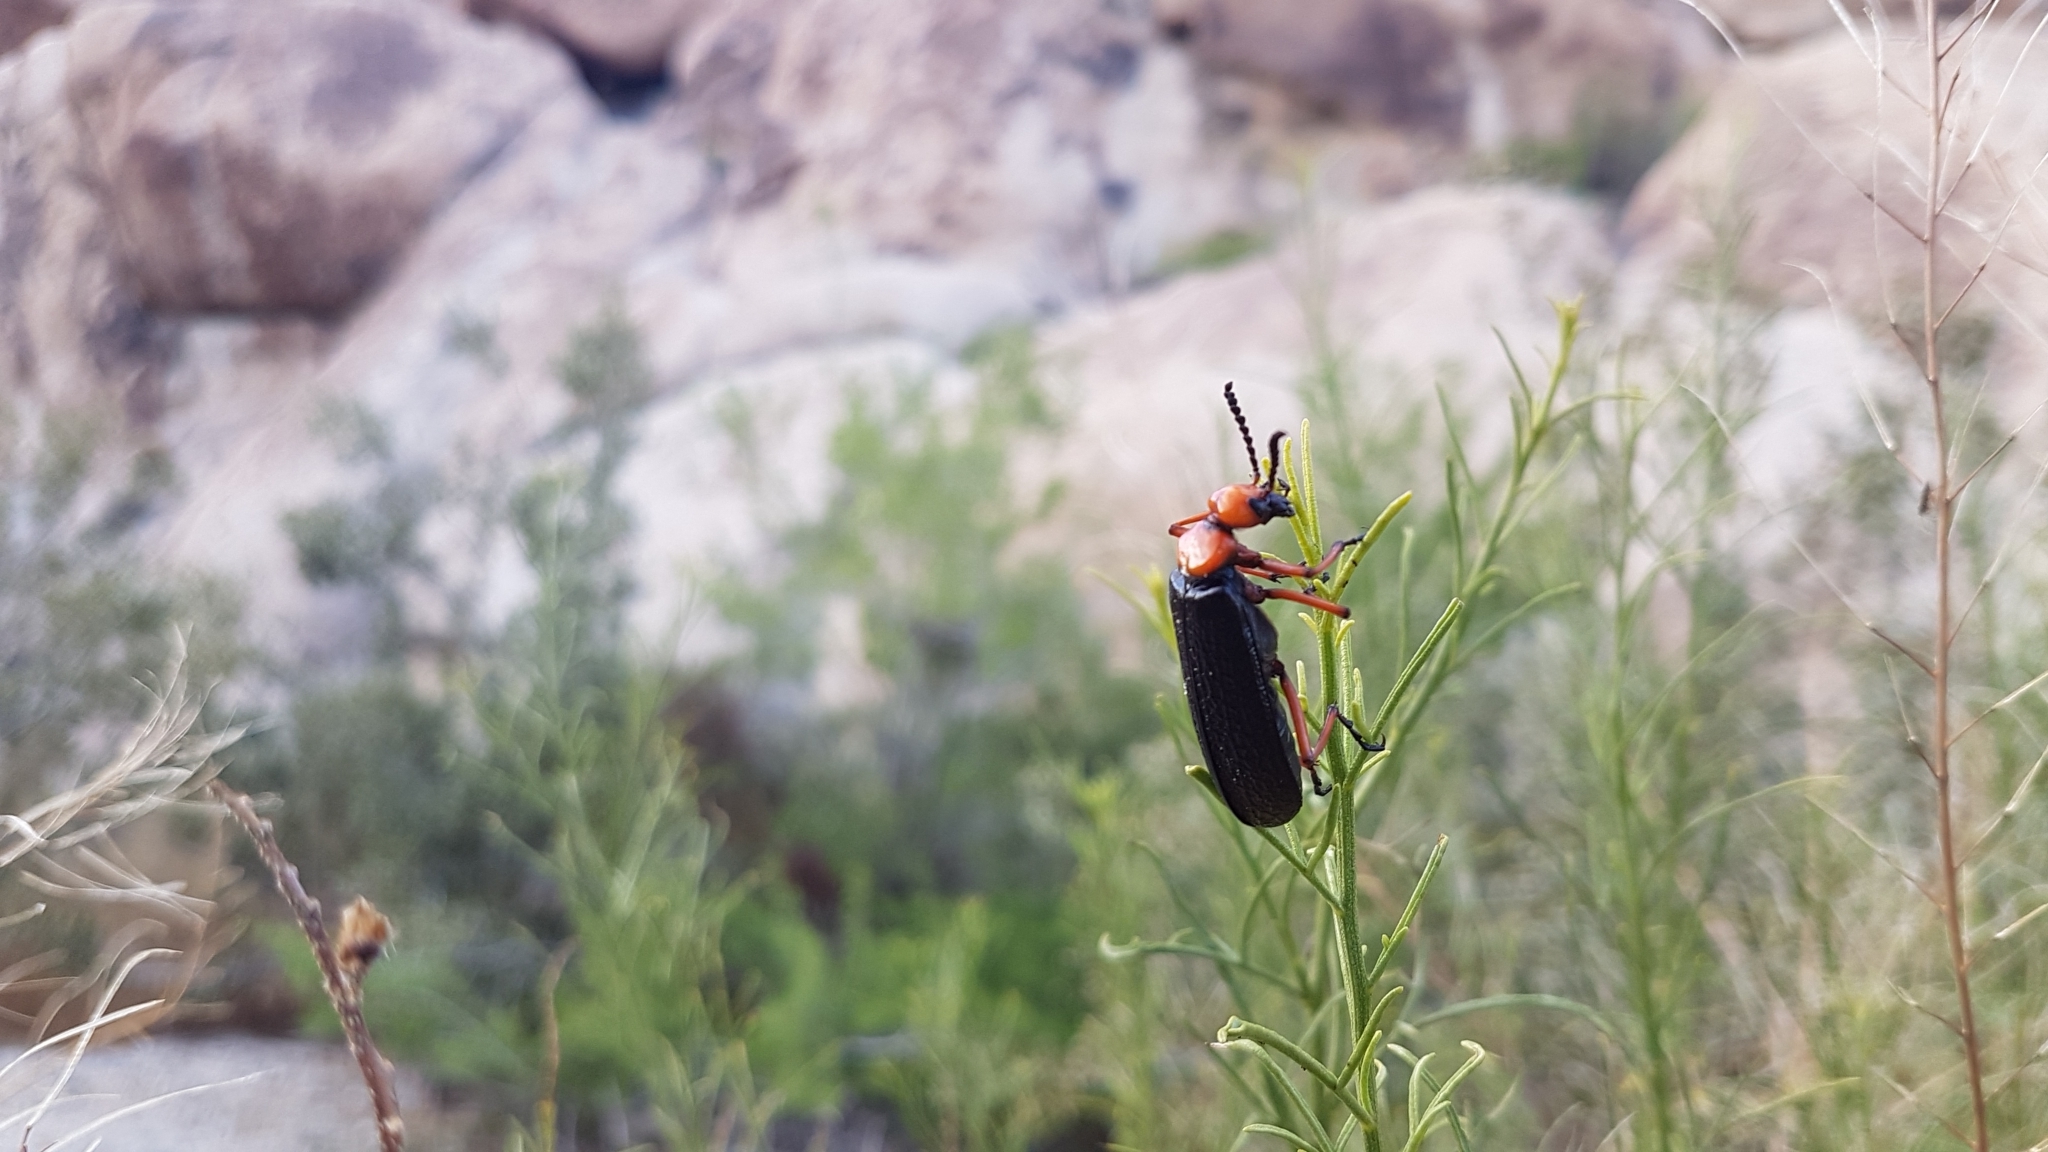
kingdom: Animalia
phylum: Arthropoda
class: Insecta
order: Coleoptera
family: Meloidae
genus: Lytta
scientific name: Lytta magister
